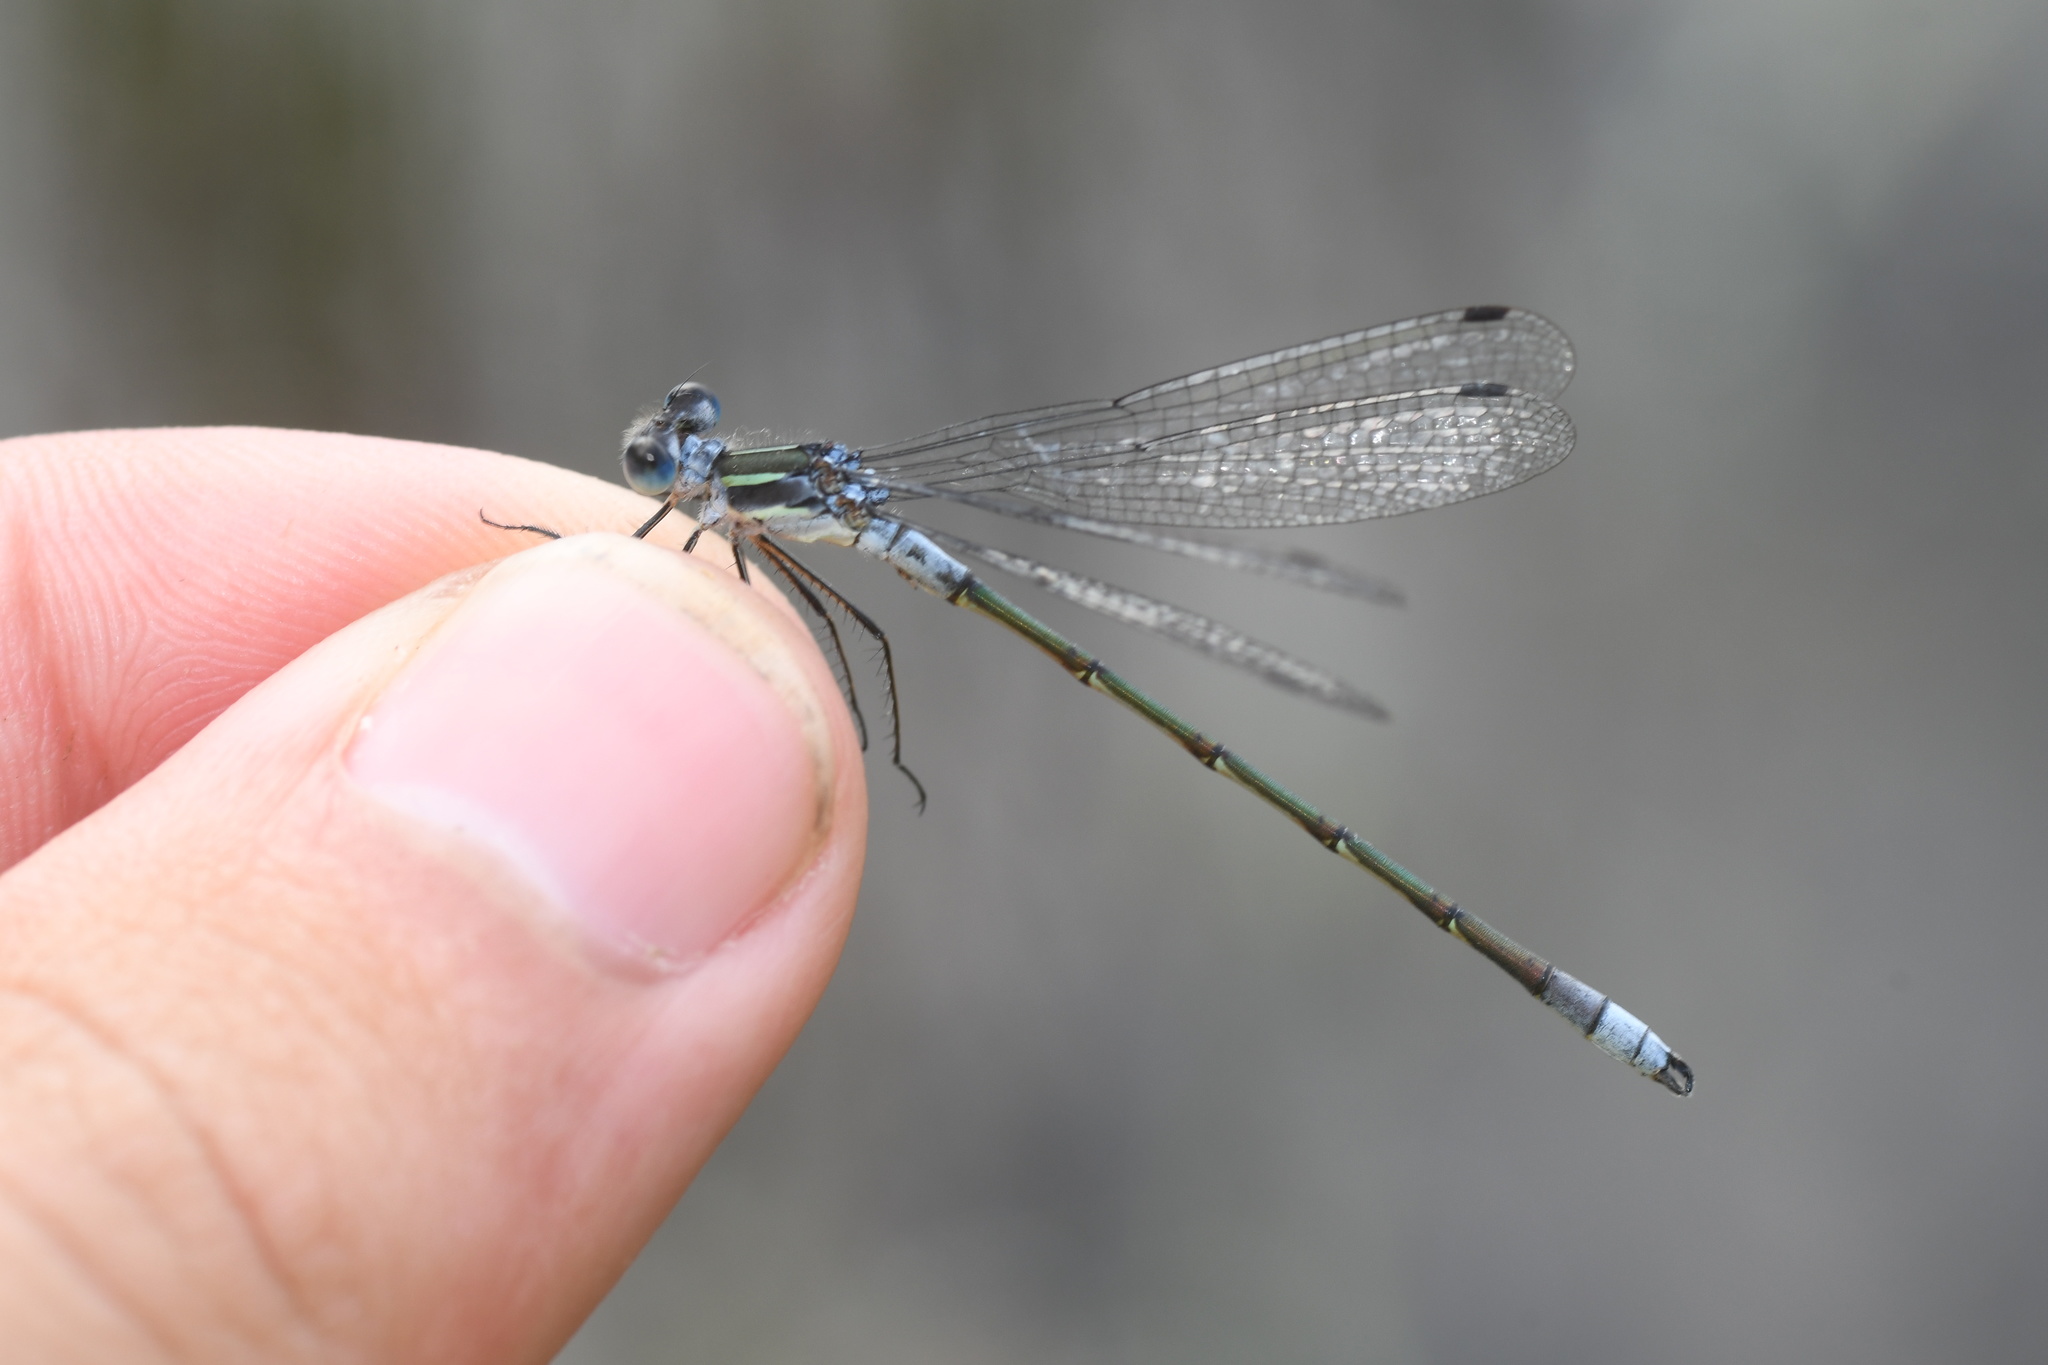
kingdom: Animalia
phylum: Arthropoda
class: Insecta
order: Odonata
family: Lestidae
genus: Lestes
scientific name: Lestes disjunctus
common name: Northern spreadwing
